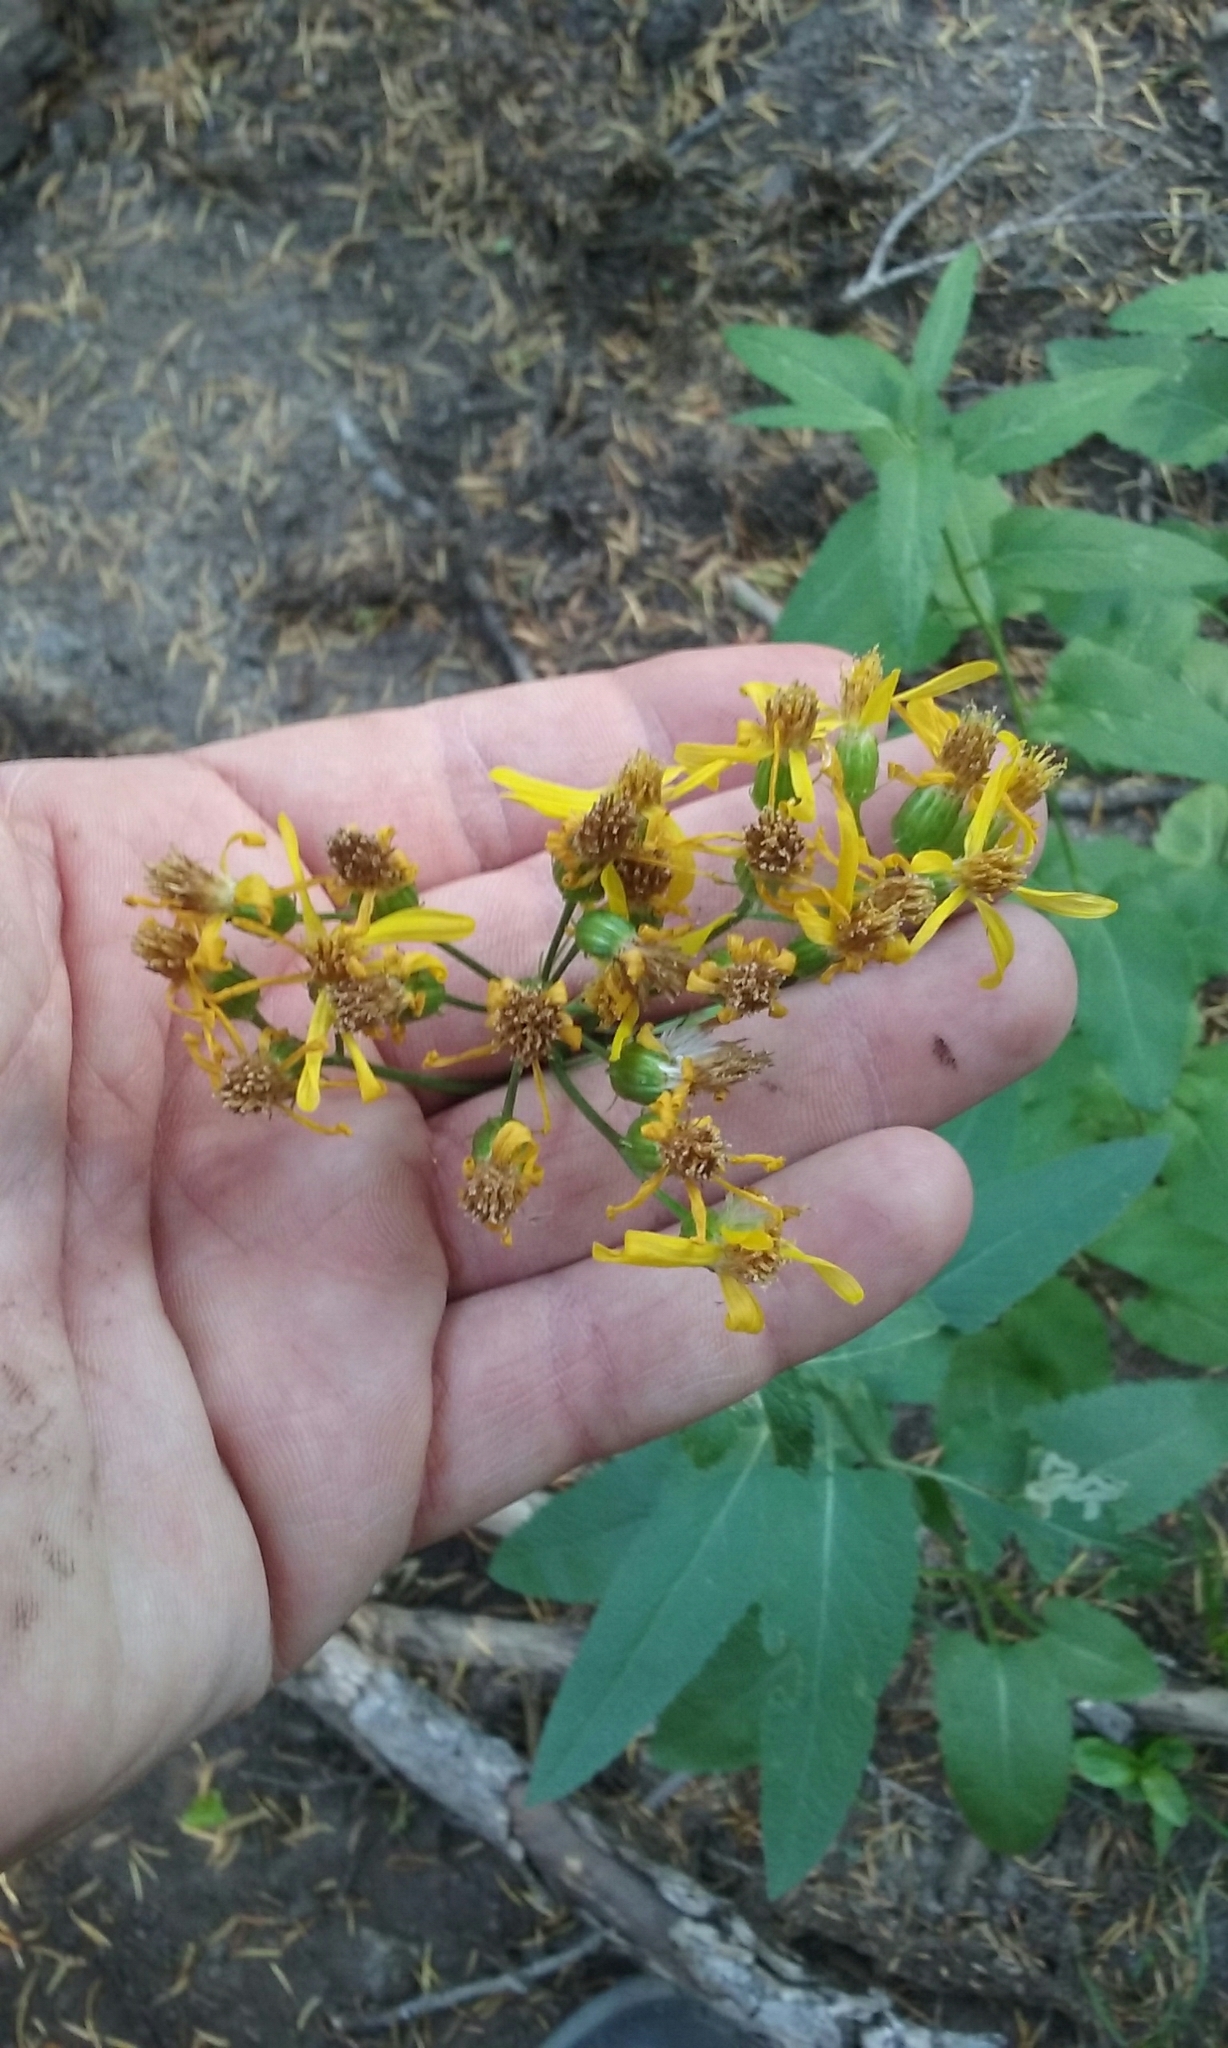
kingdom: Plantae
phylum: Tracheophyta
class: Magnoliopsida
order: Asterales
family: Asteraceae
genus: Senecio
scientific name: Senecio triangularis
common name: Arrowleaf butterweed
